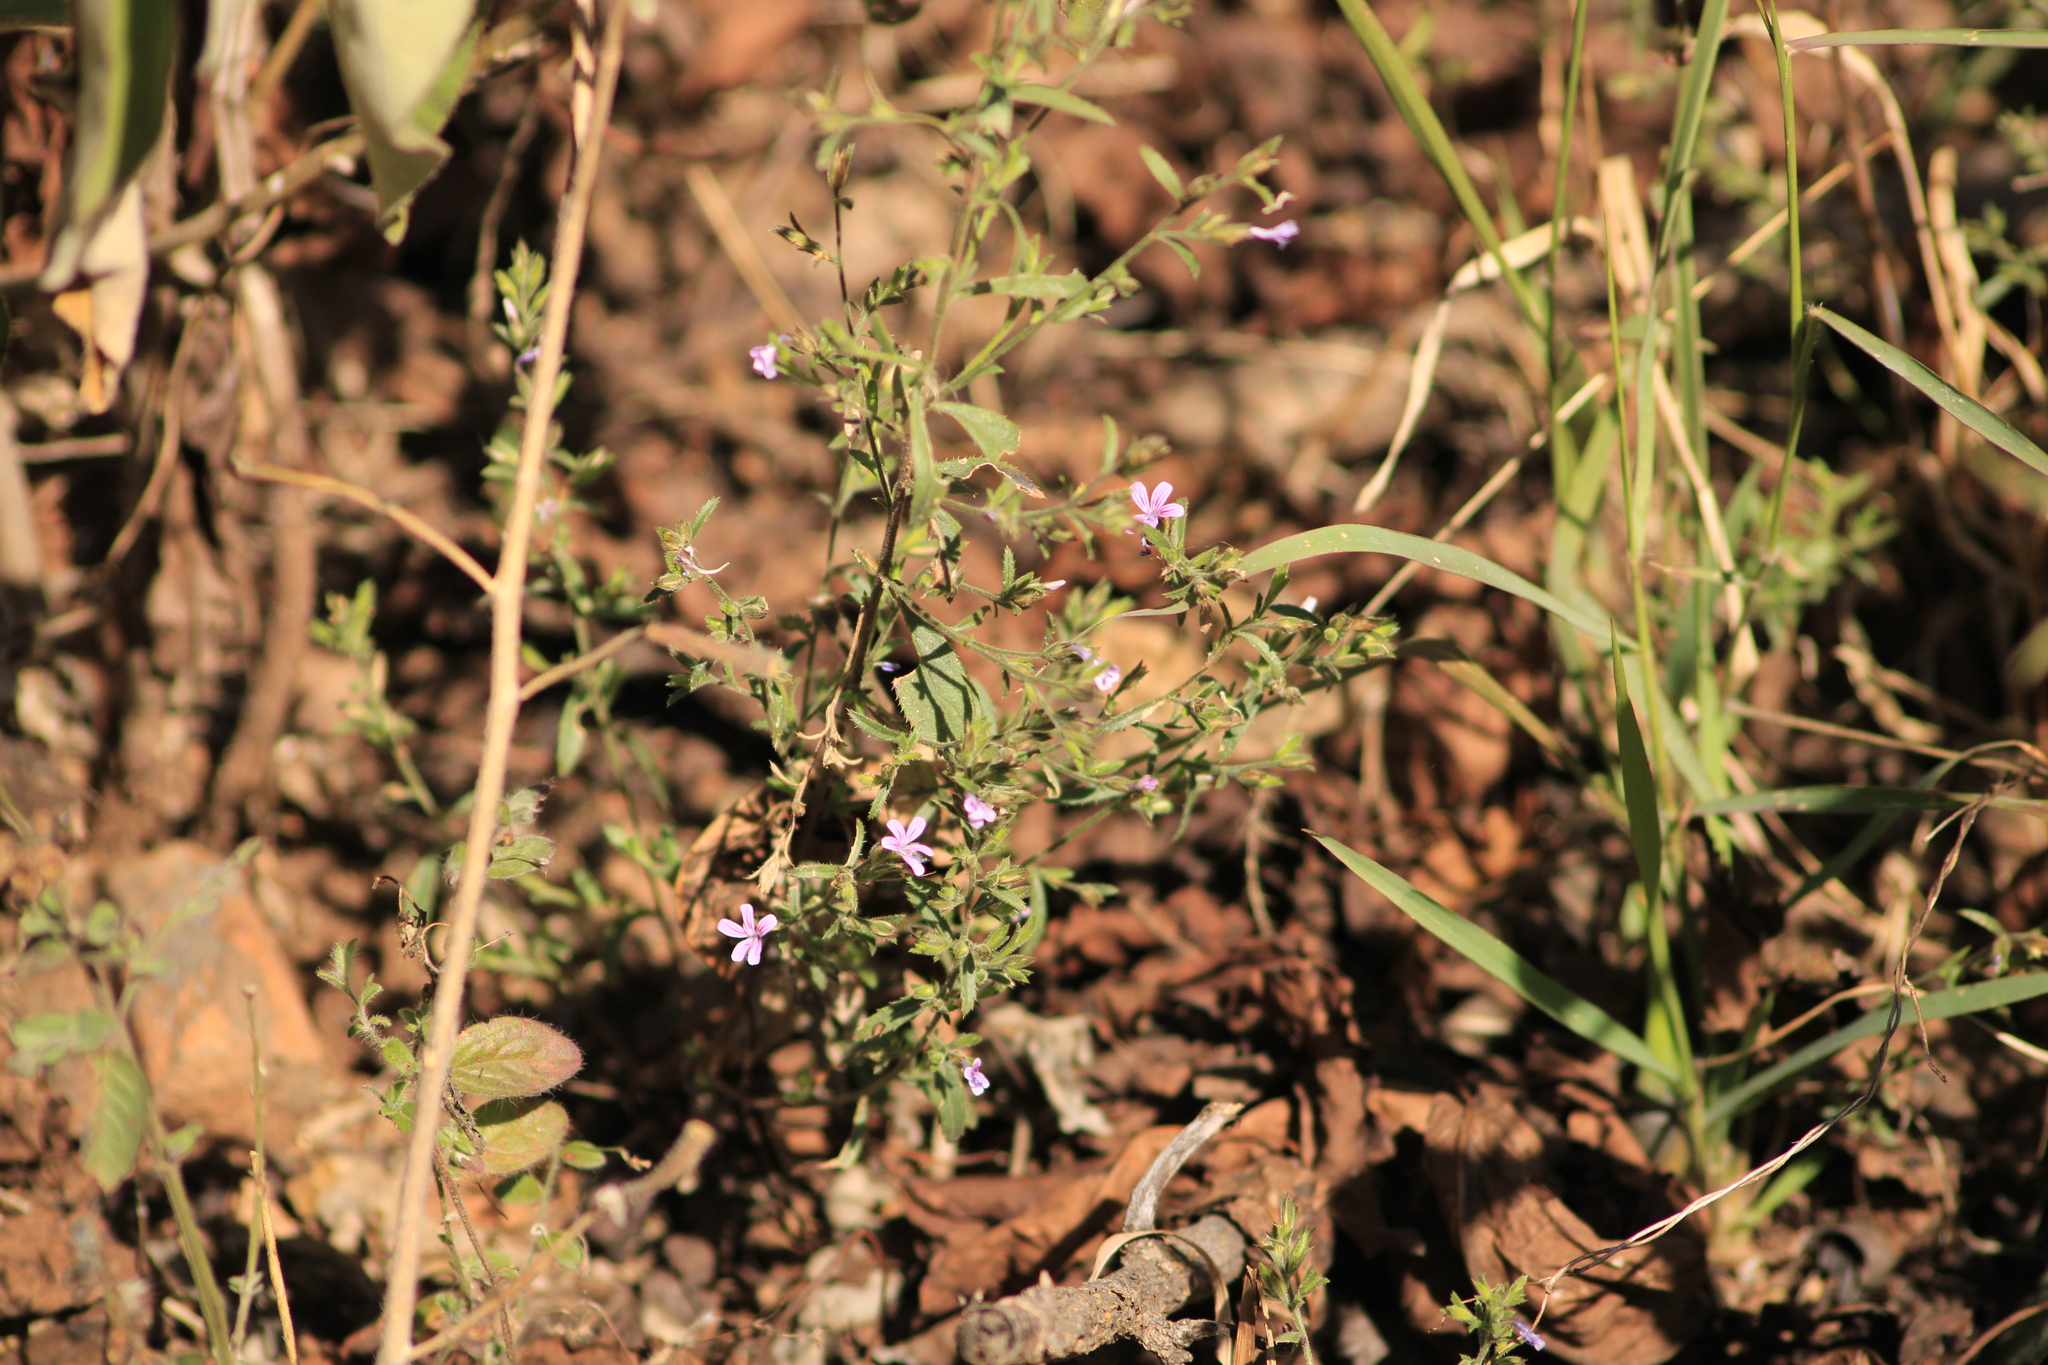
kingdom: Plantae
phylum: Tracheophyta
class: Magnoliopsida
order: Ericales
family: Polemoniaceae
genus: Loeselia
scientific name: Loeselia glandulosa
